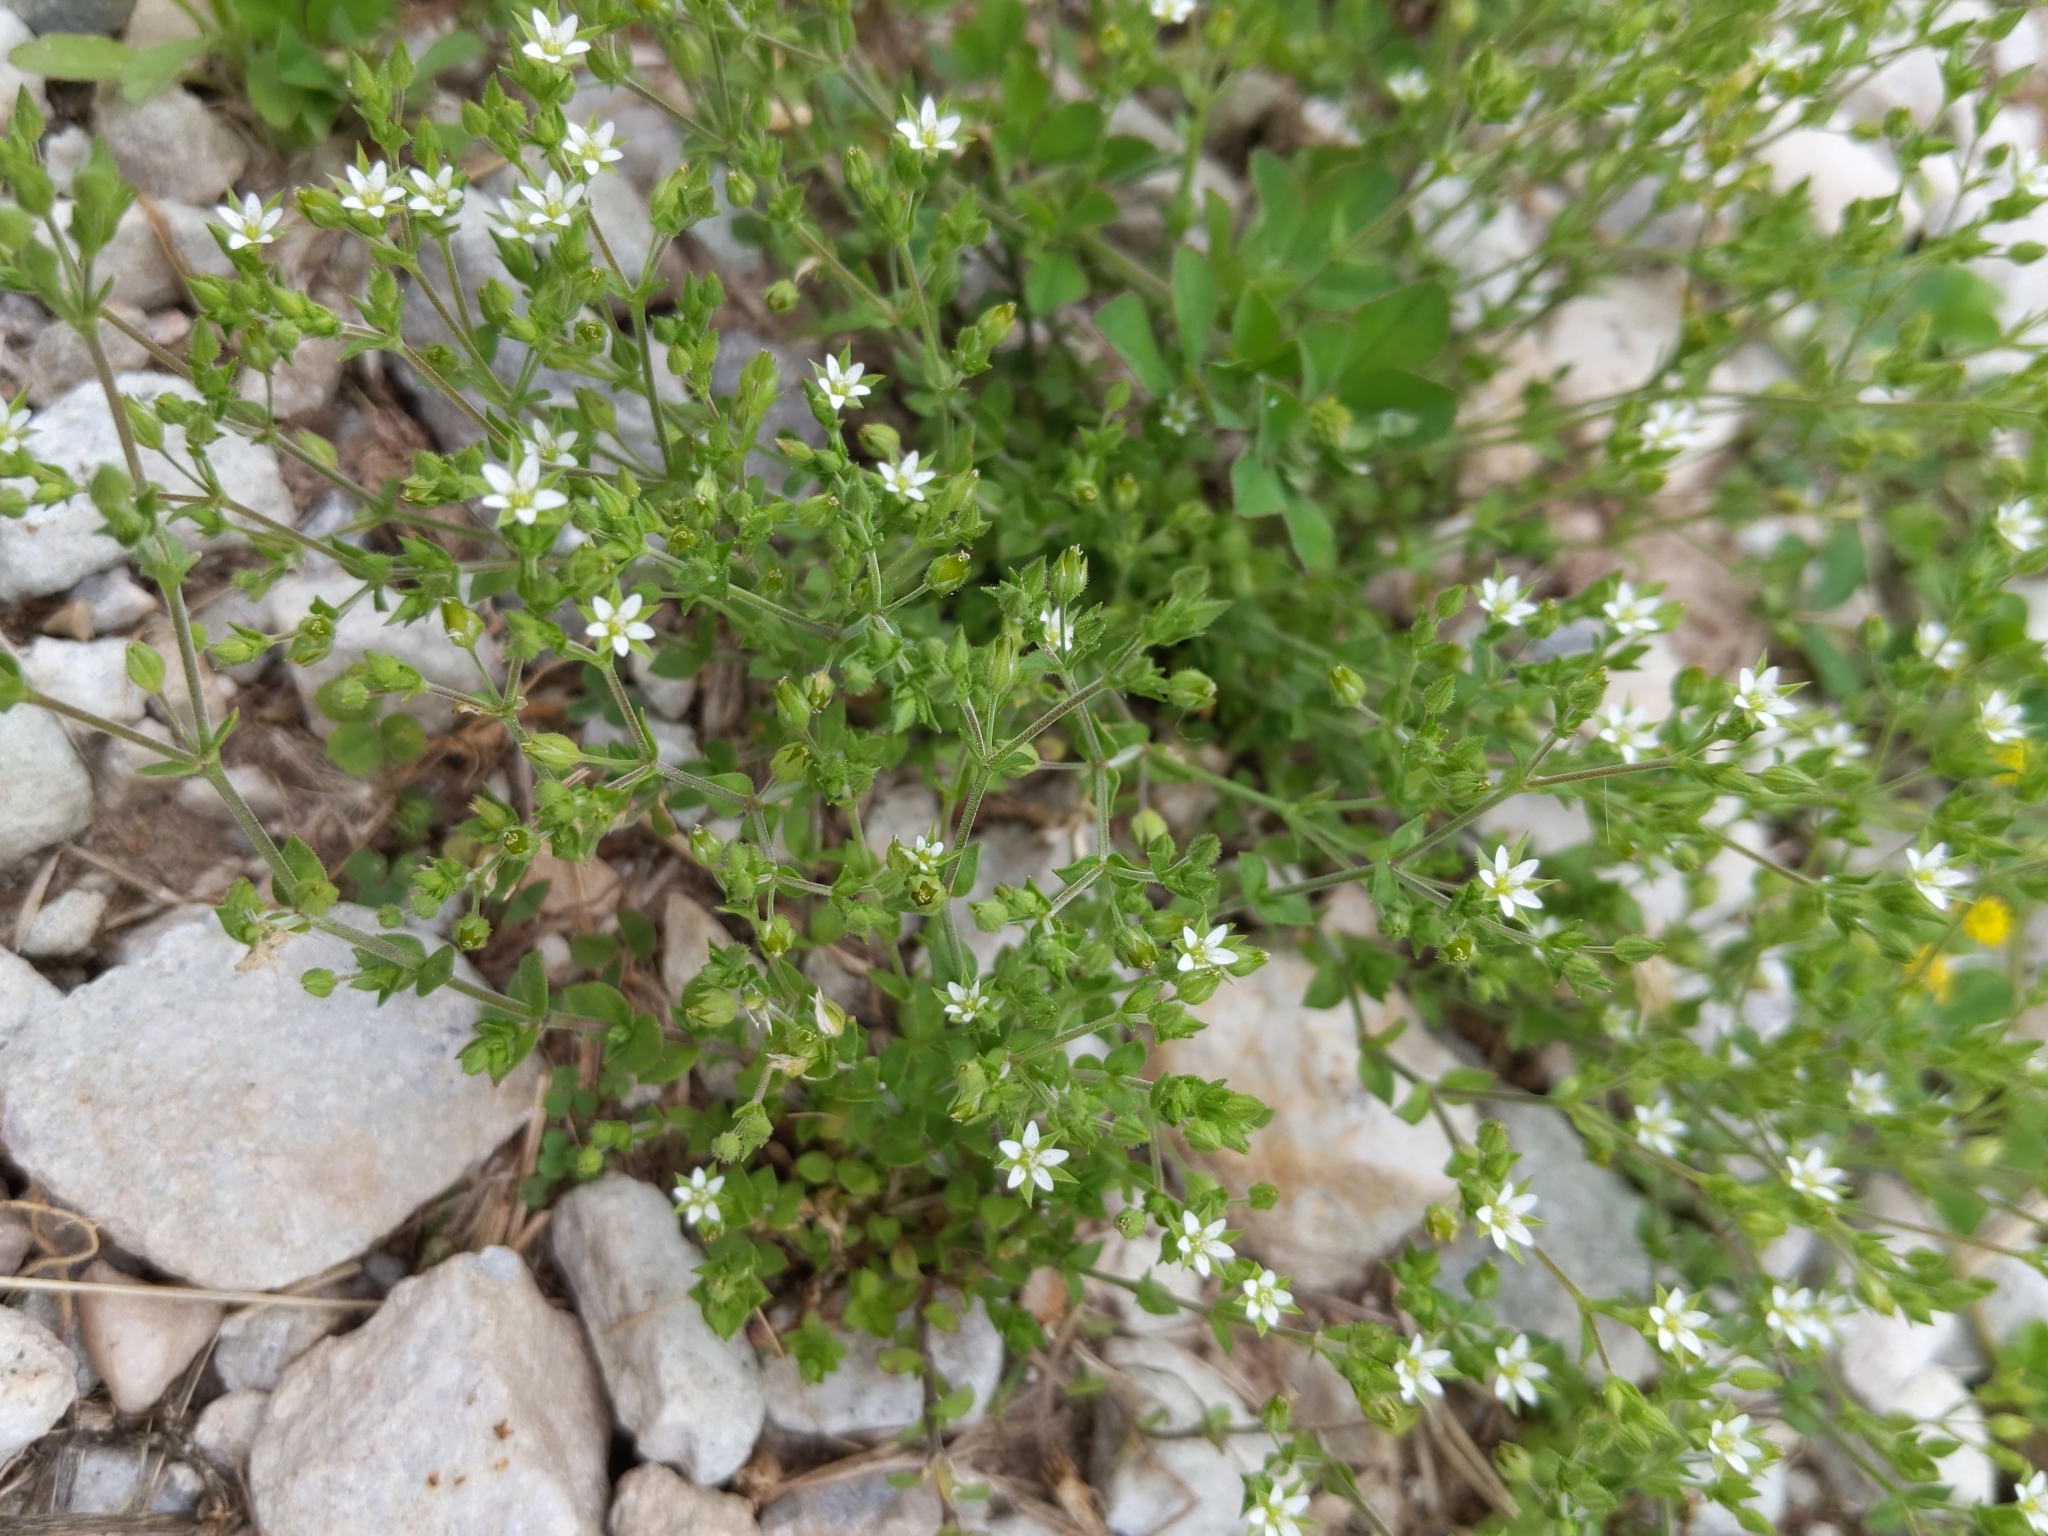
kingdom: Plantae
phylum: Tracheophyta
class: Magnoliopsida
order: Caryophyllales
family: Caryophyllaceae
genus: Arenaria
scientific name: Arenaria serpyllifolia
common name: Thyme-leaved sandwort
